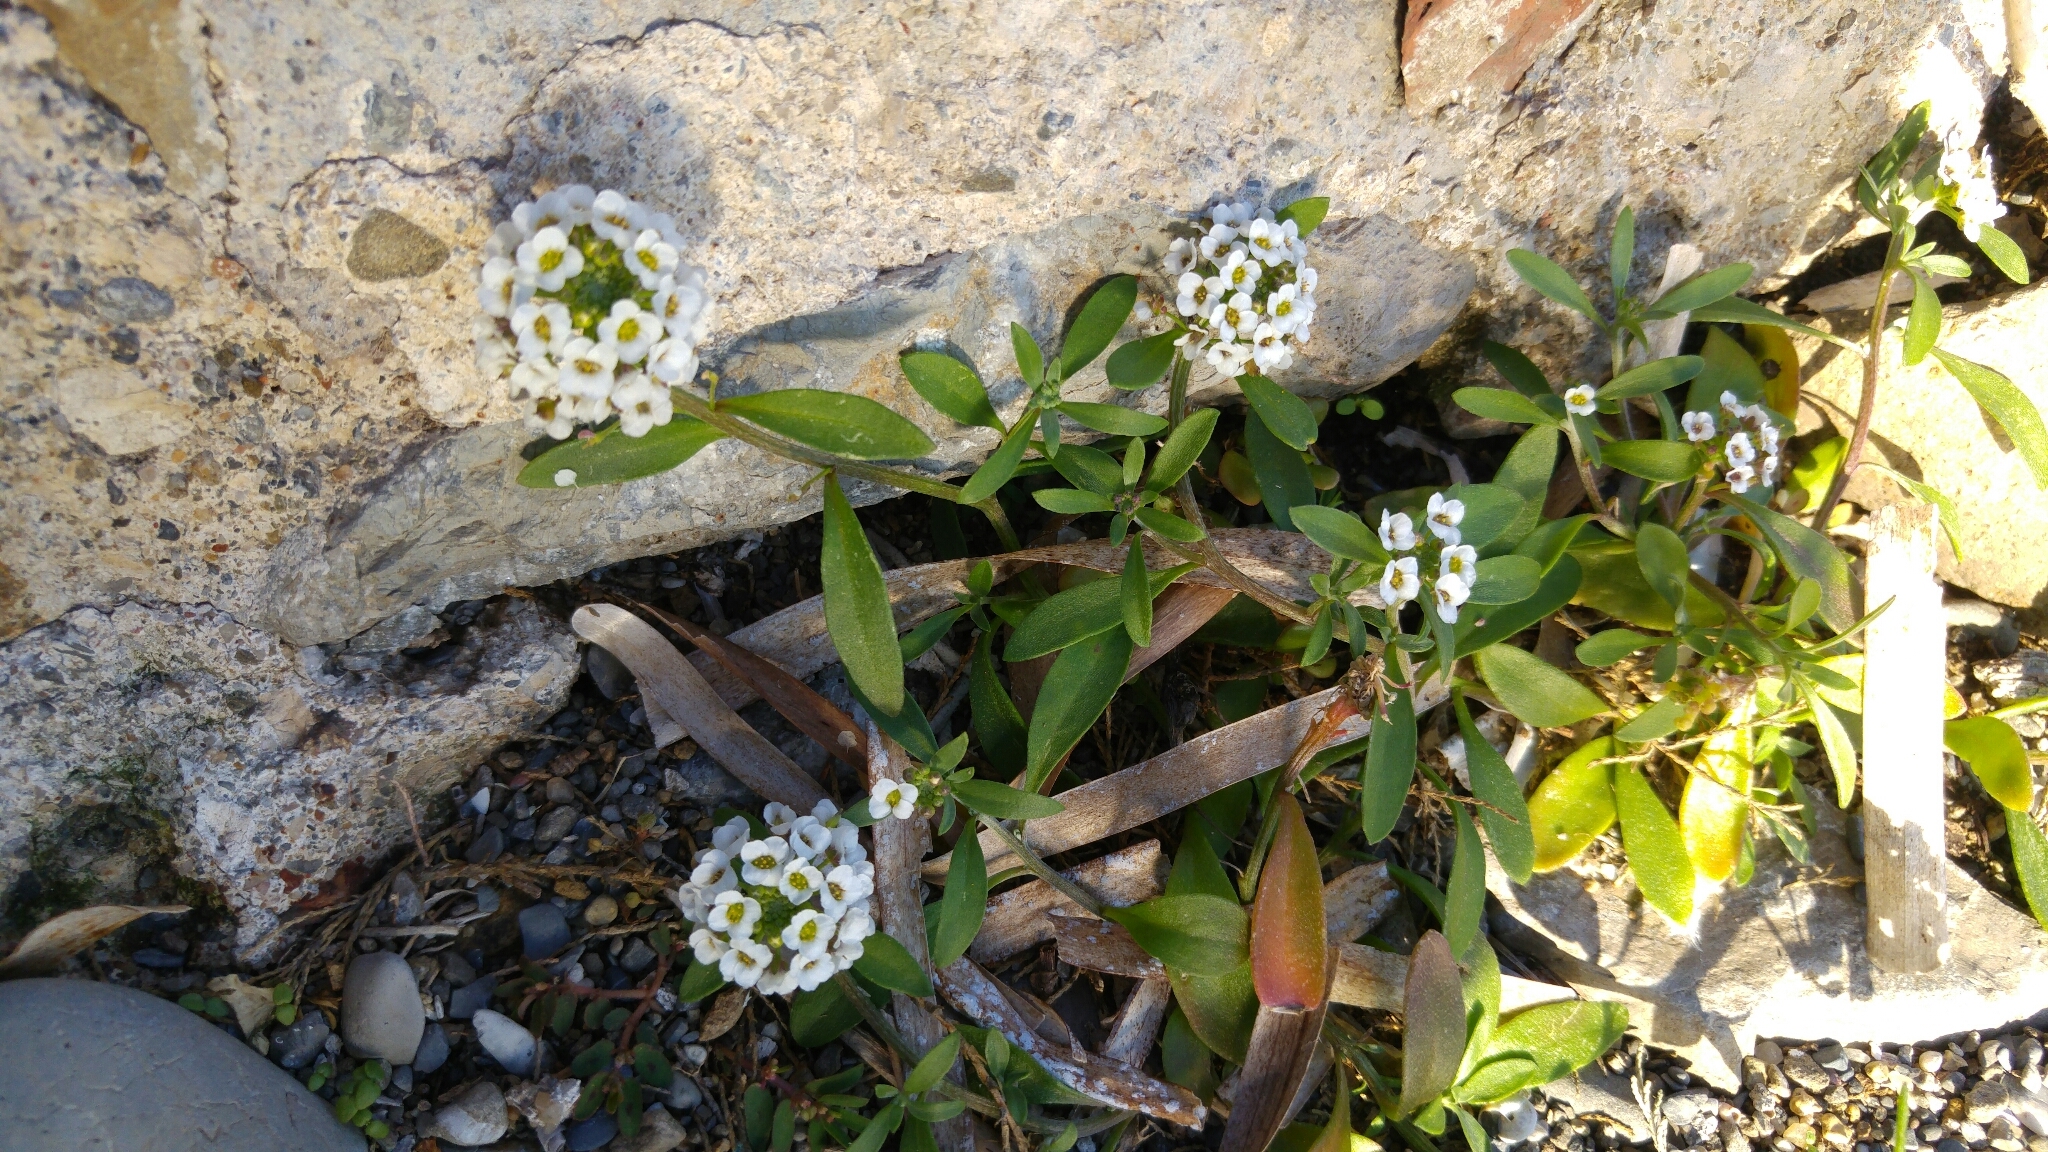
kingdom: Plantae
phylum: Tracheophyta
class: Magnoliopsida
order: Brassicales
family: Brassicaceae
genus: Lobularia
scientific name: Lobularia maritima
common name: Sweet alison
